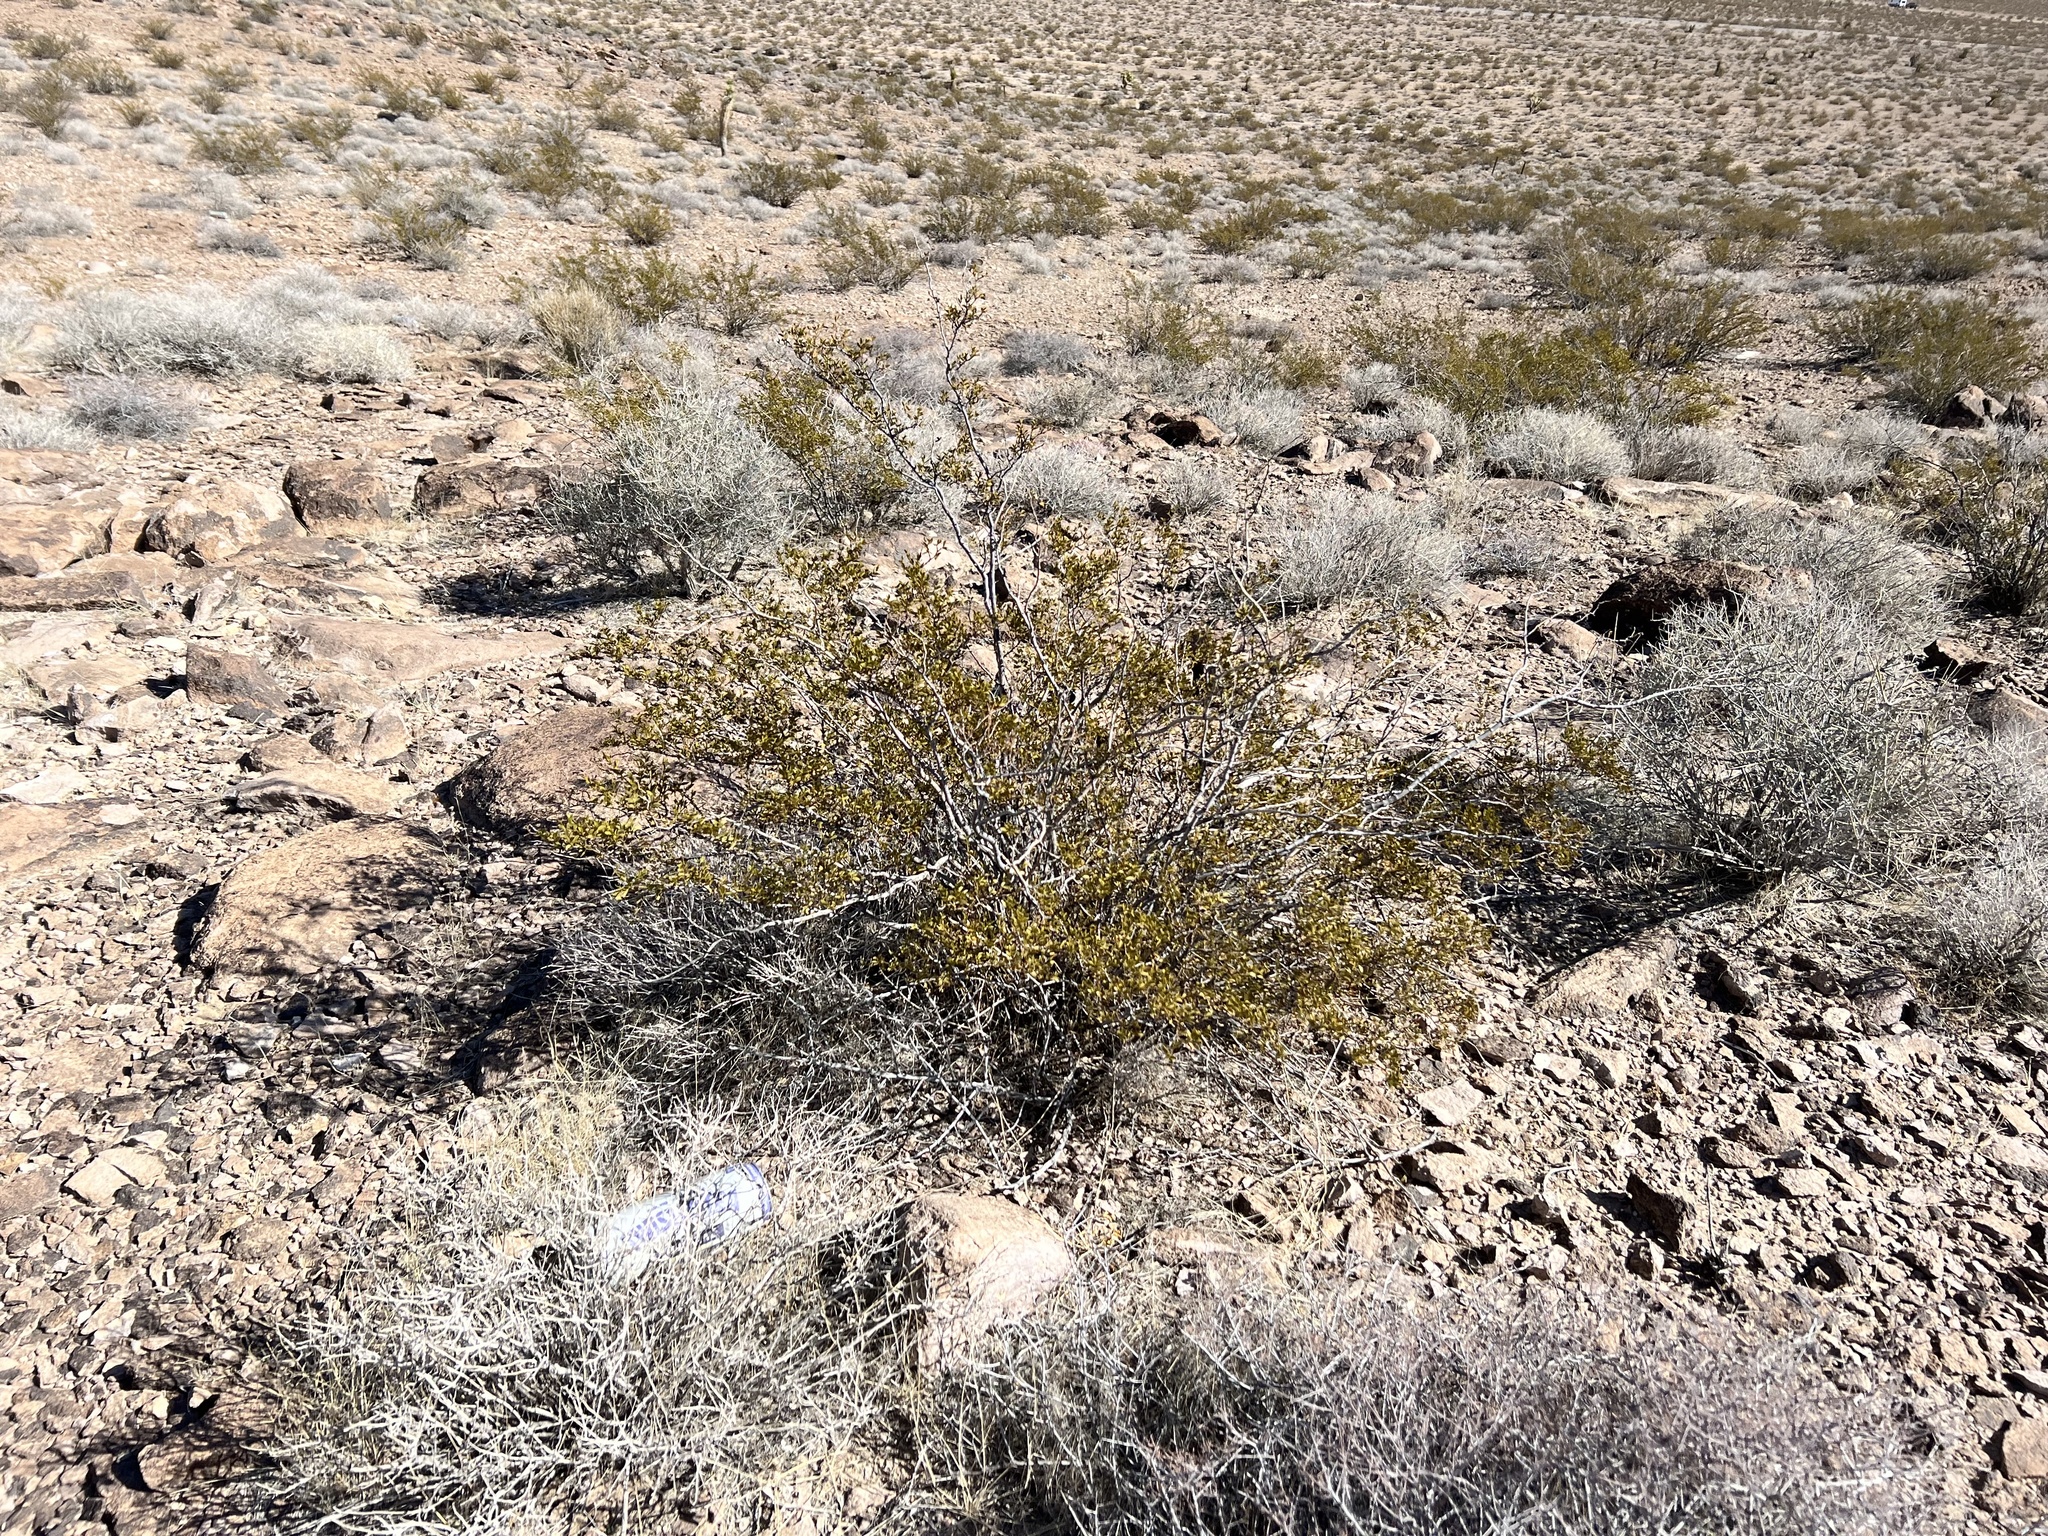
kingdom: Plantae
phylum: Tracheophyta
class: Magnoliopsida
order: Zygophyllales
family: Zygophyllaceae
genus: Larrea
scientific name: Larrea tridentata
